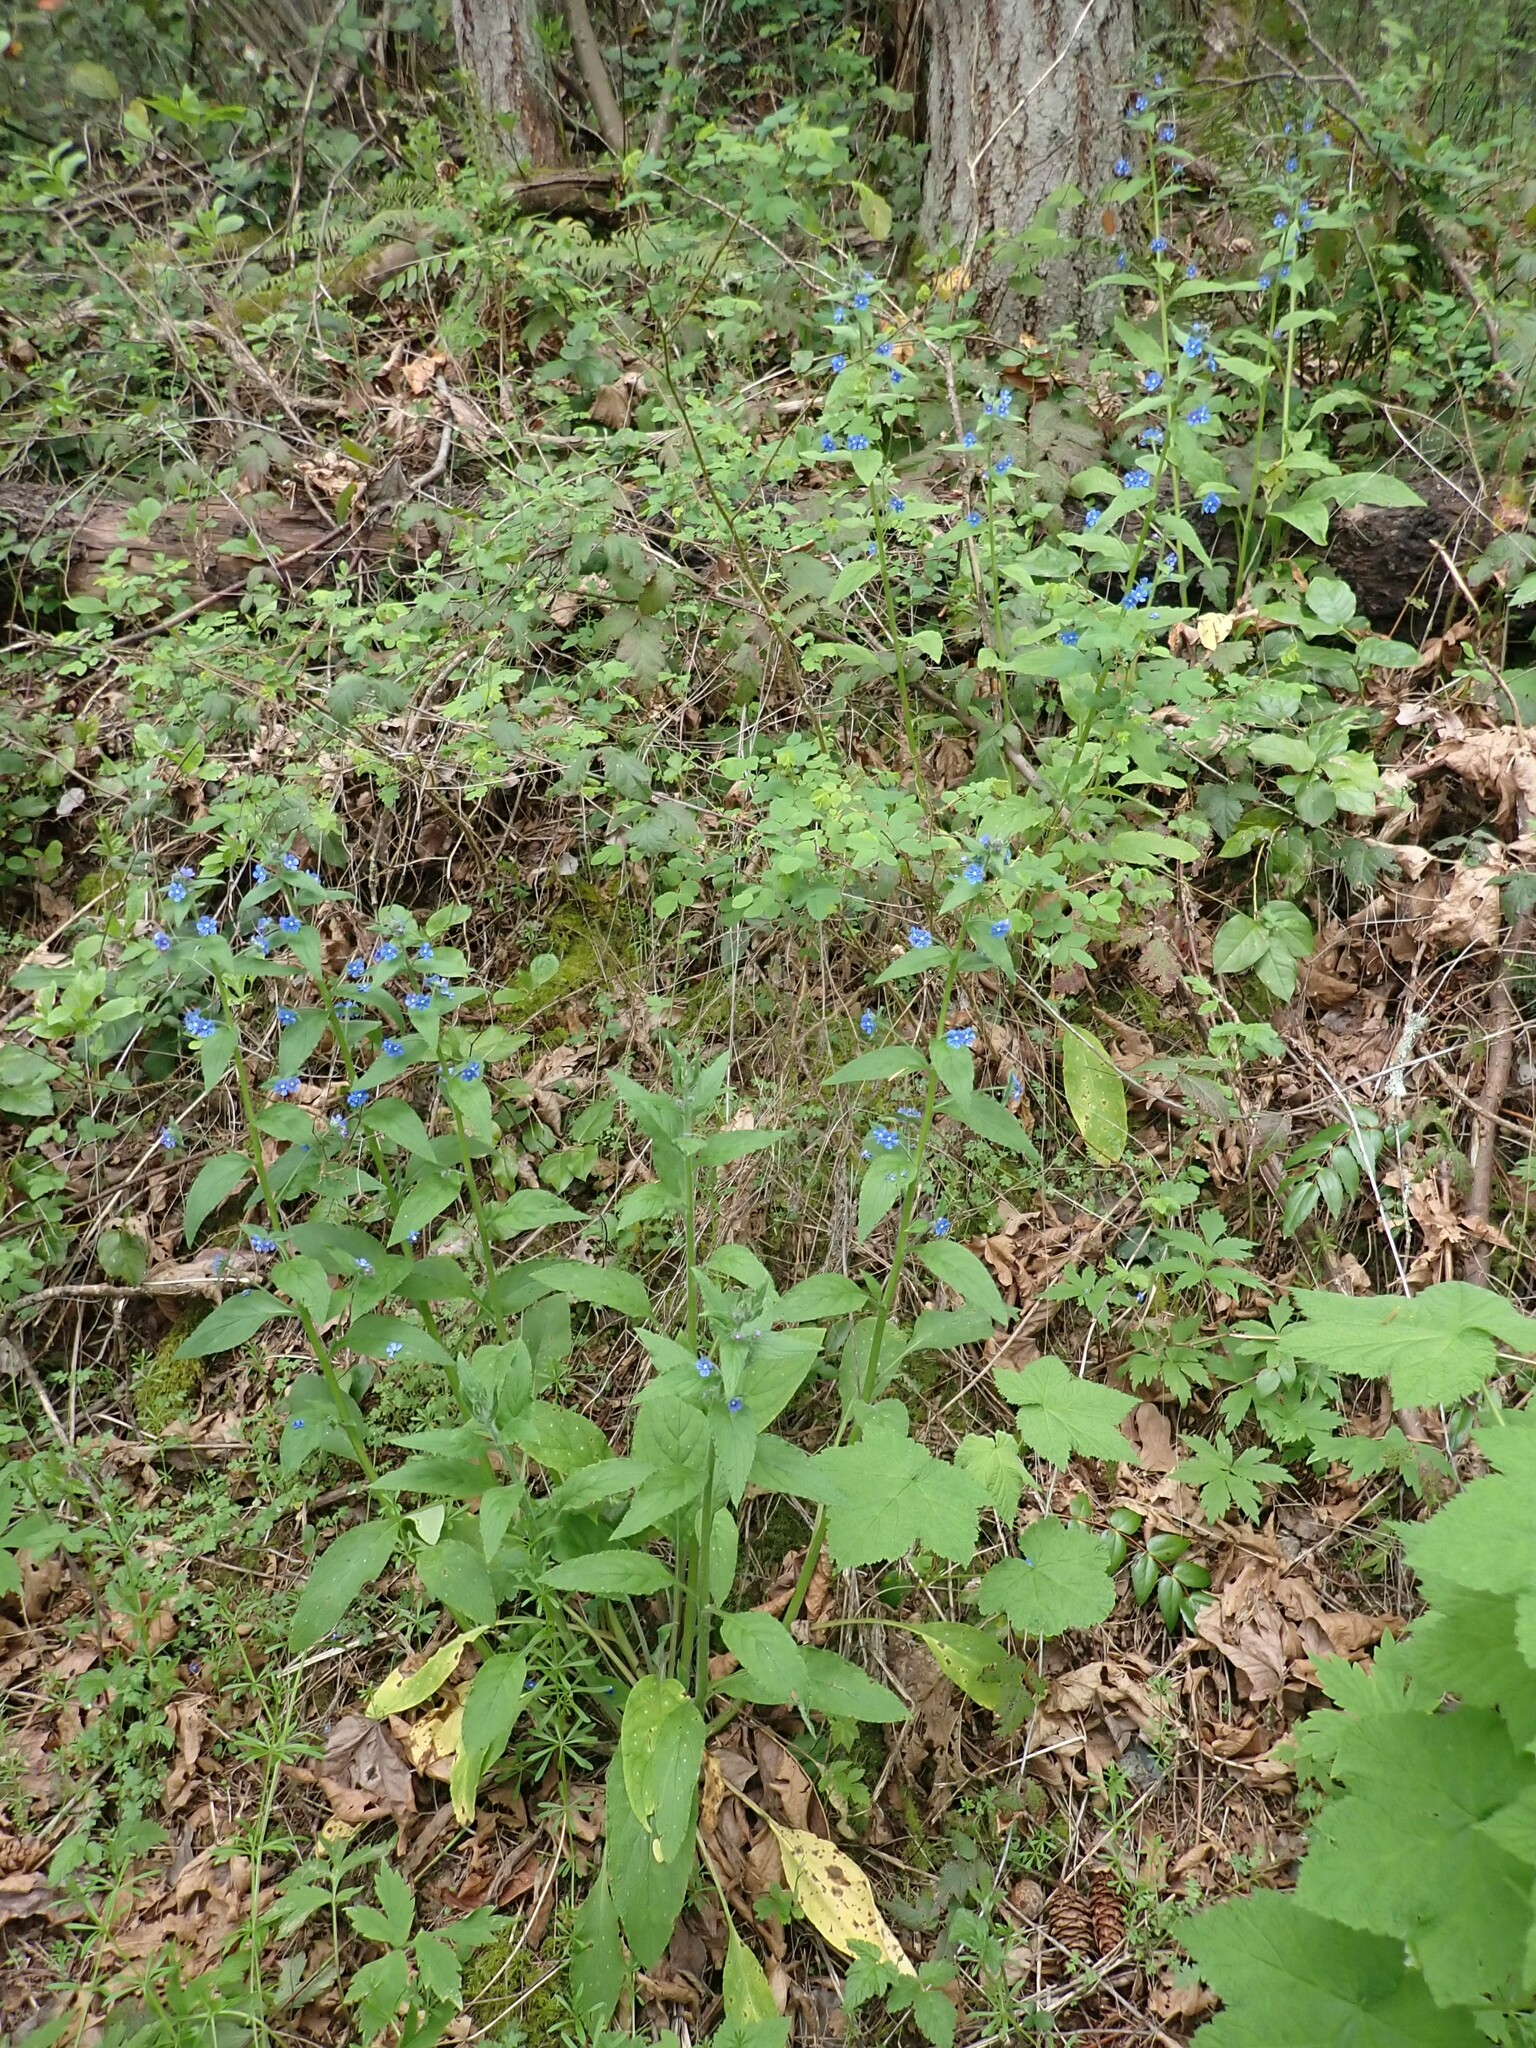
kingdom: Plantae
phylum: Tracheophyta
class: Magnoliopsida
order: Boraginales
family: Boraginaceae
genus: Pentaglottis
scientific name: Pentaglottis sempervirens
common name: Green alkanet
